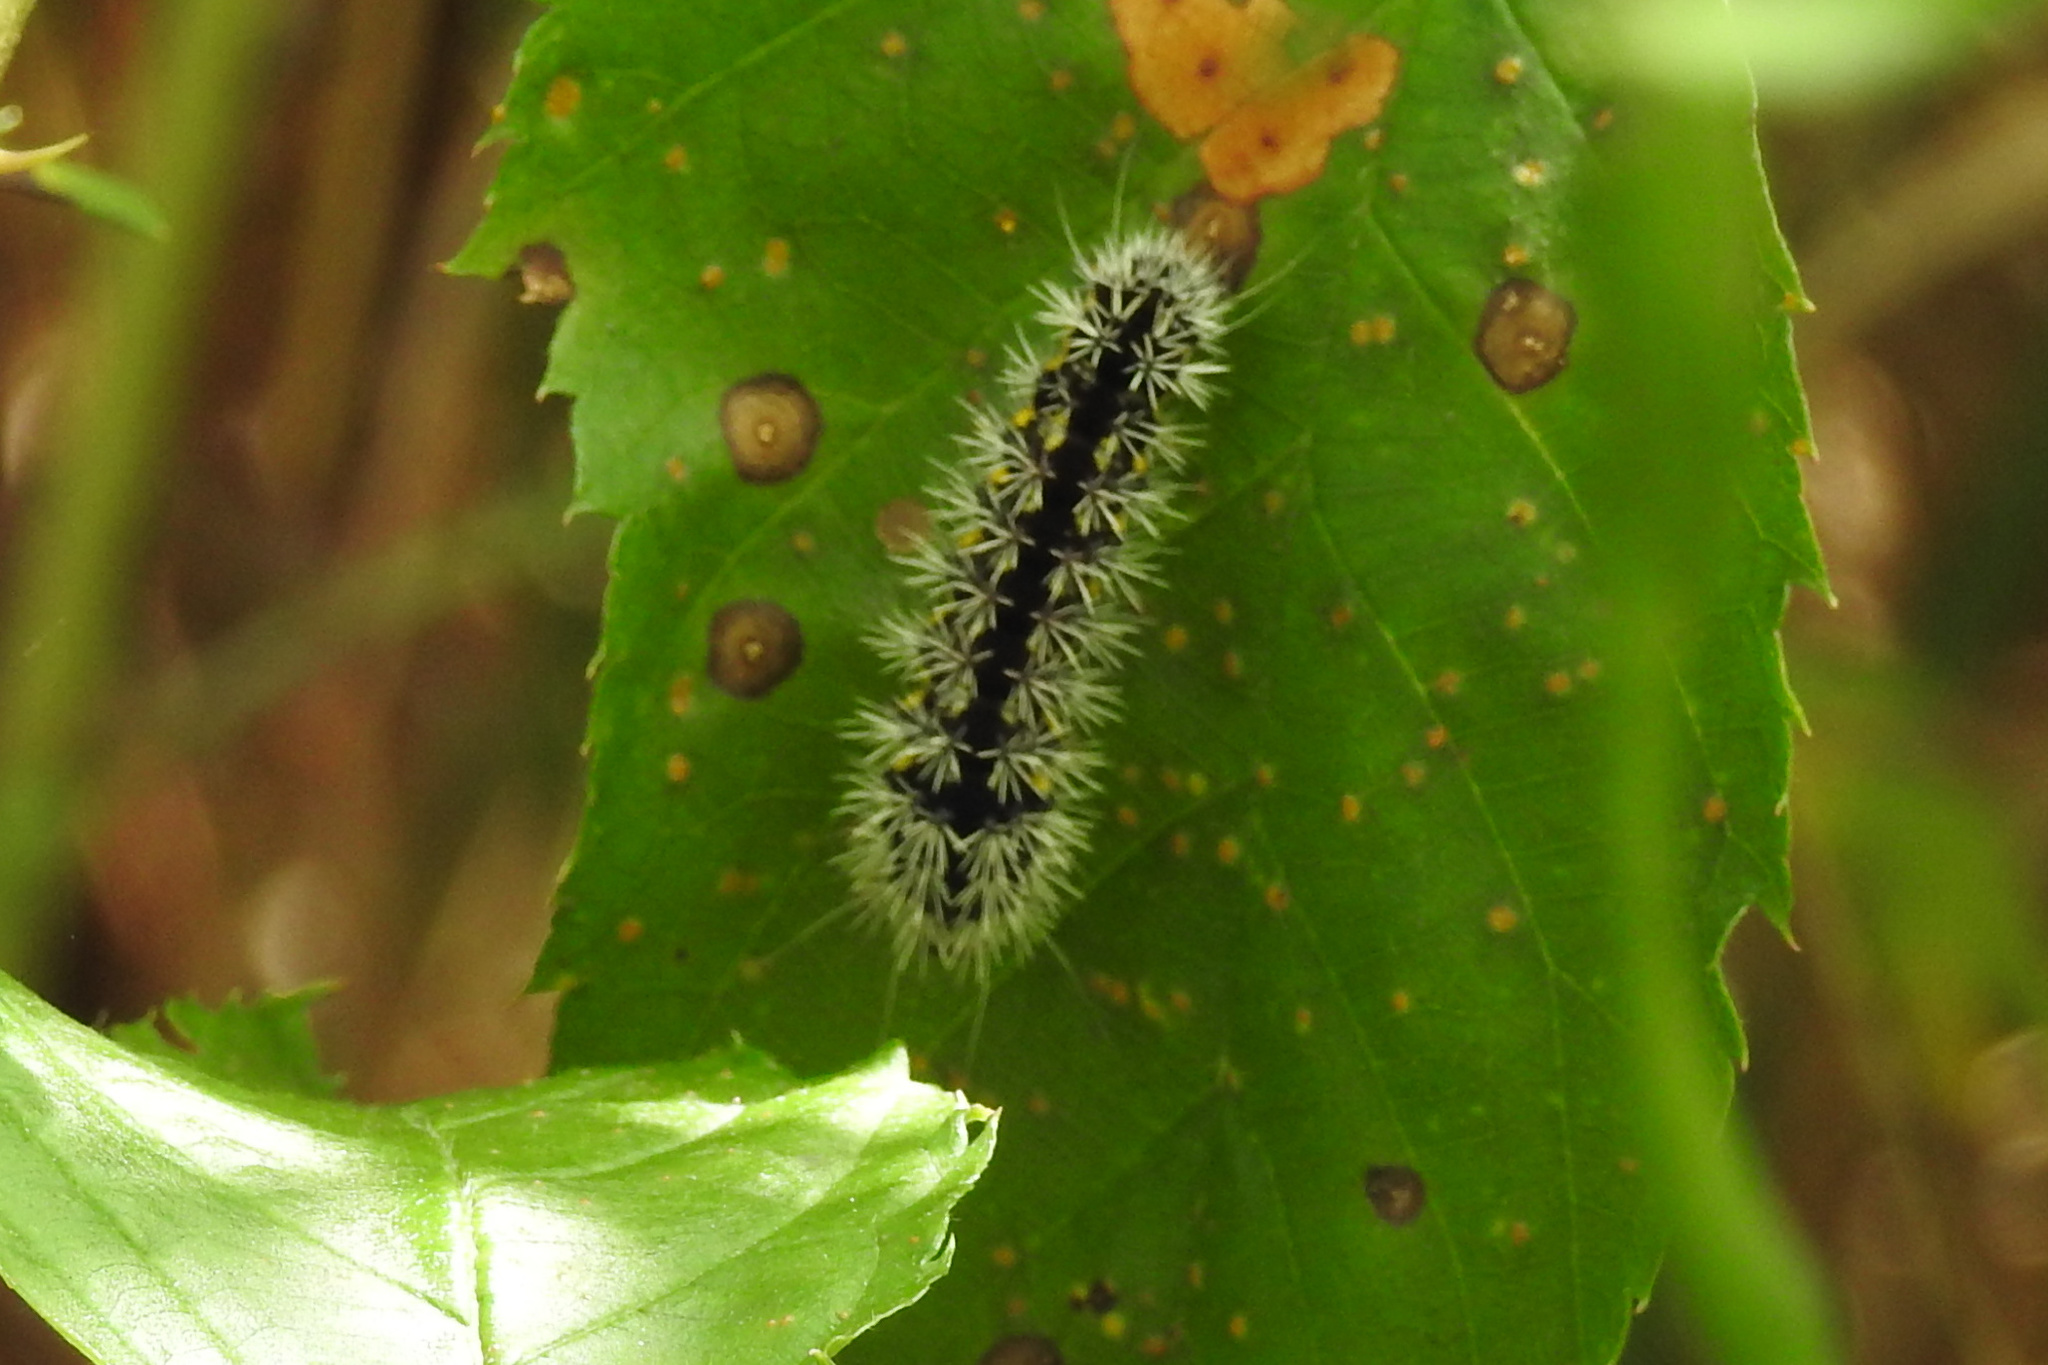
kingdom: Animalia
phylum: Arthropoda
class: Insecta
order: Lepidoptera
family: Noctuidae
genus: Acronicta
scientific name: Acronicta oblinita
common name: Smeared dagger
